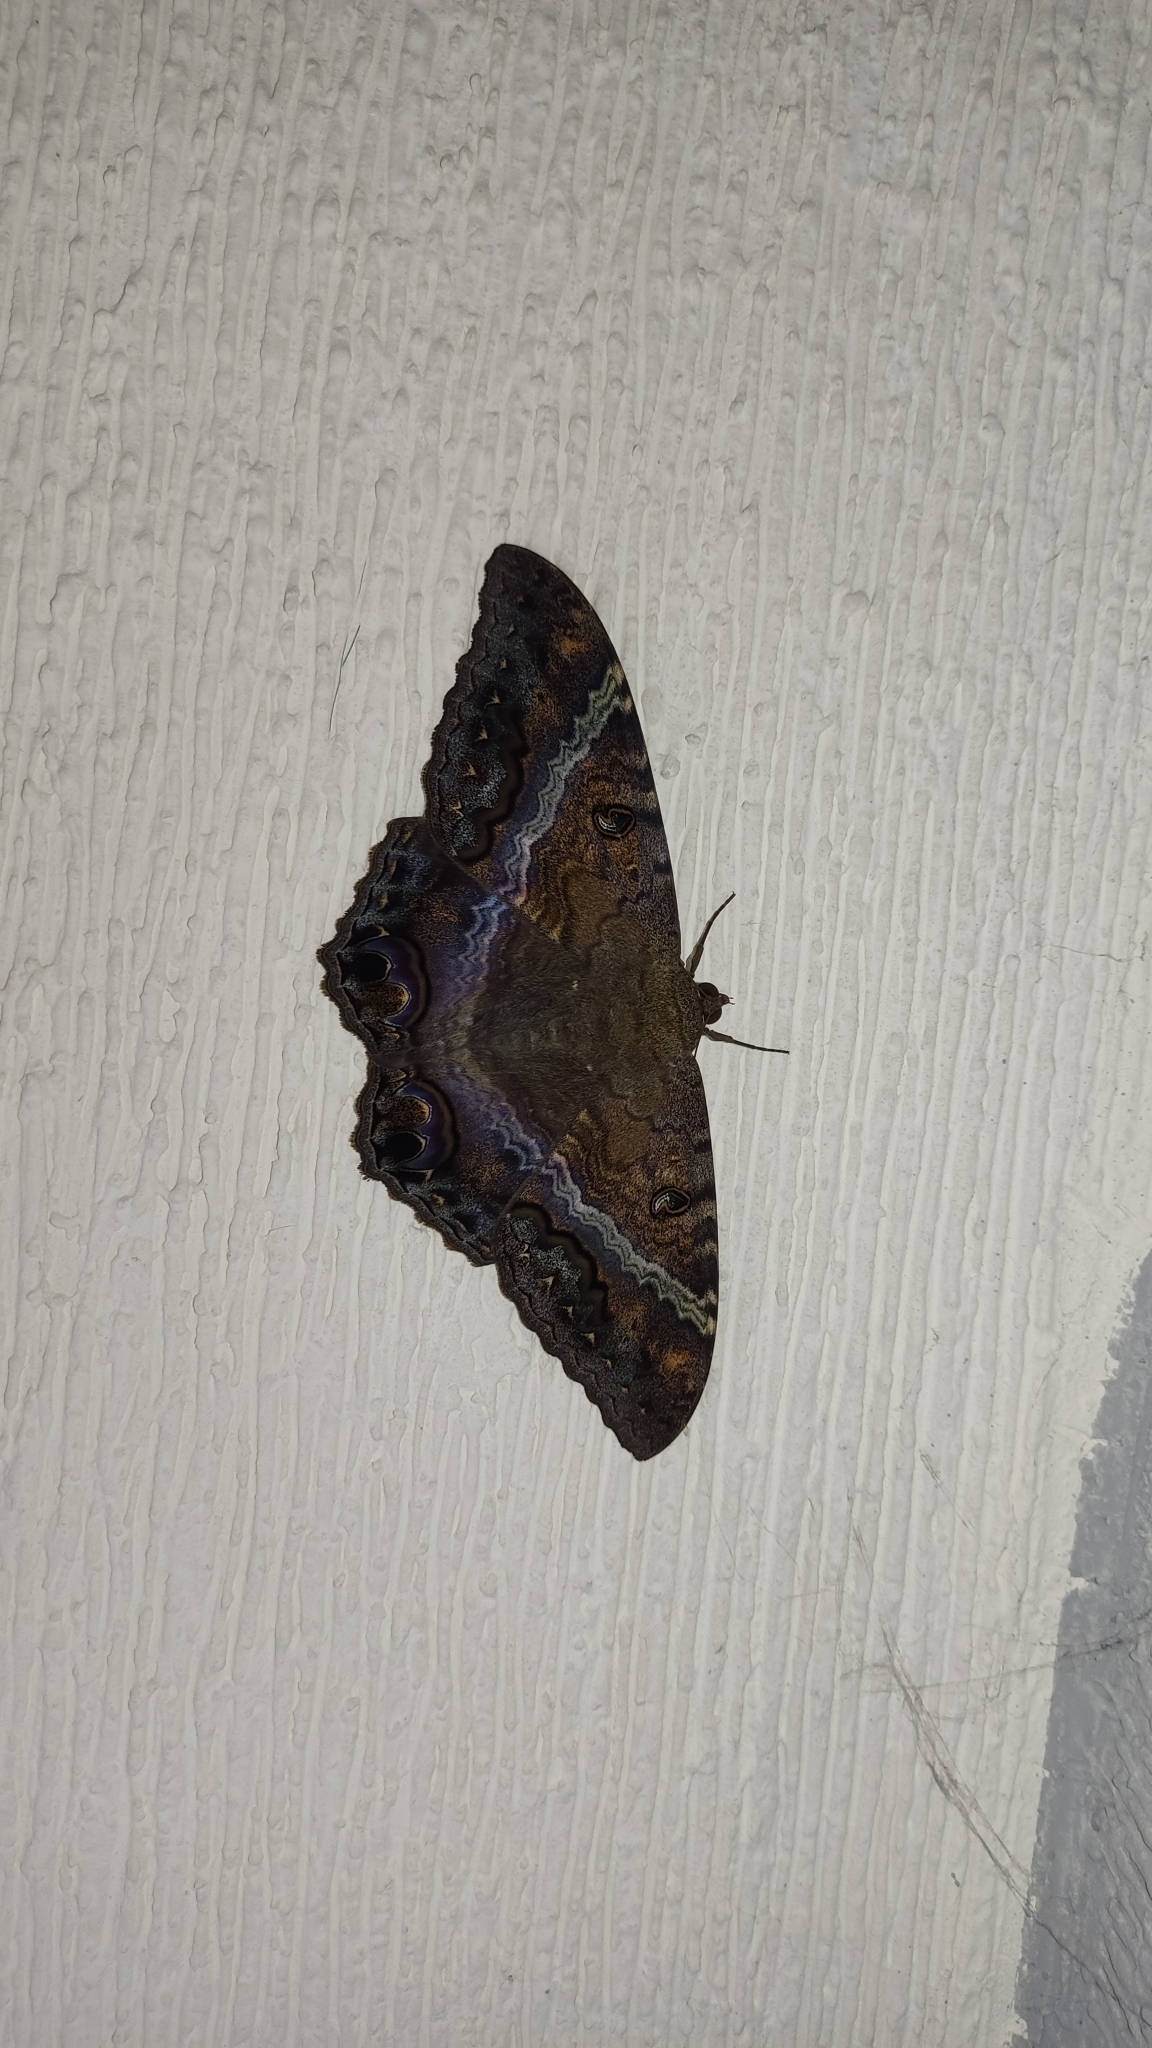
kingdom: Animalia
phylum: Arthropoda
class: Insecta
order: Lepidoptera
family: Erebidae
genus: Ascalapha
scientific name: Ascalapha odorata
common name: Black witch
